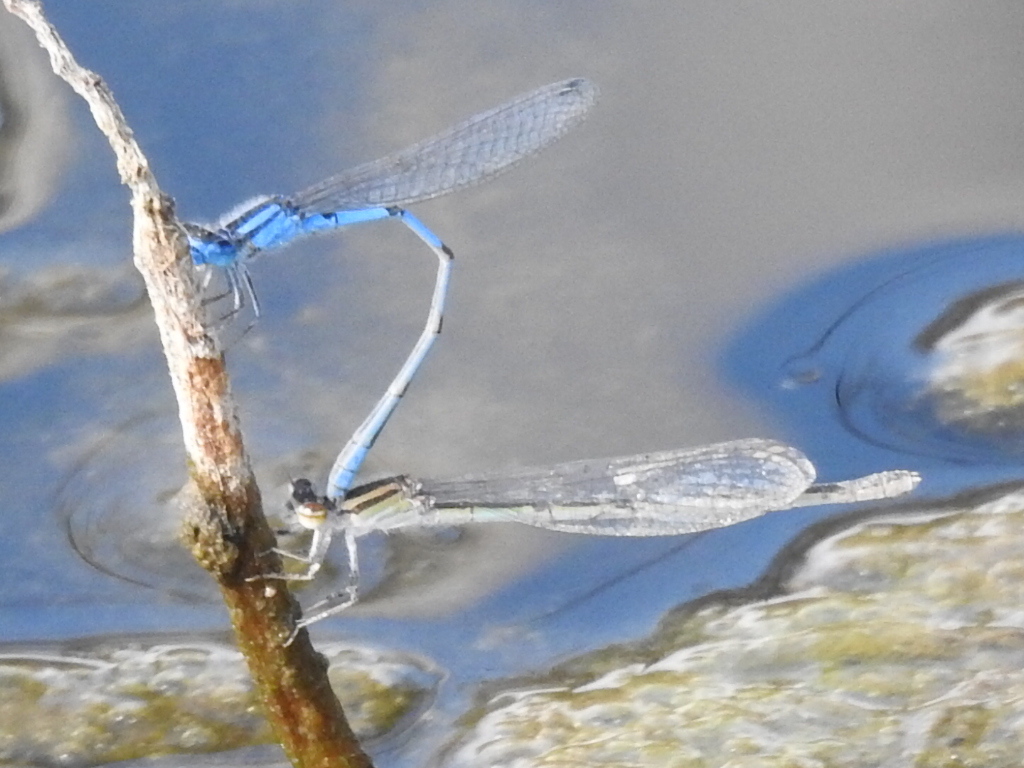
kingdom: Animalia
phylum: Arthropoda
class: Insecta
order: Odonata
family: Coenagrionidae
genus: Enallagma
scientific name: Enallagma civile
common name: Damselfly
